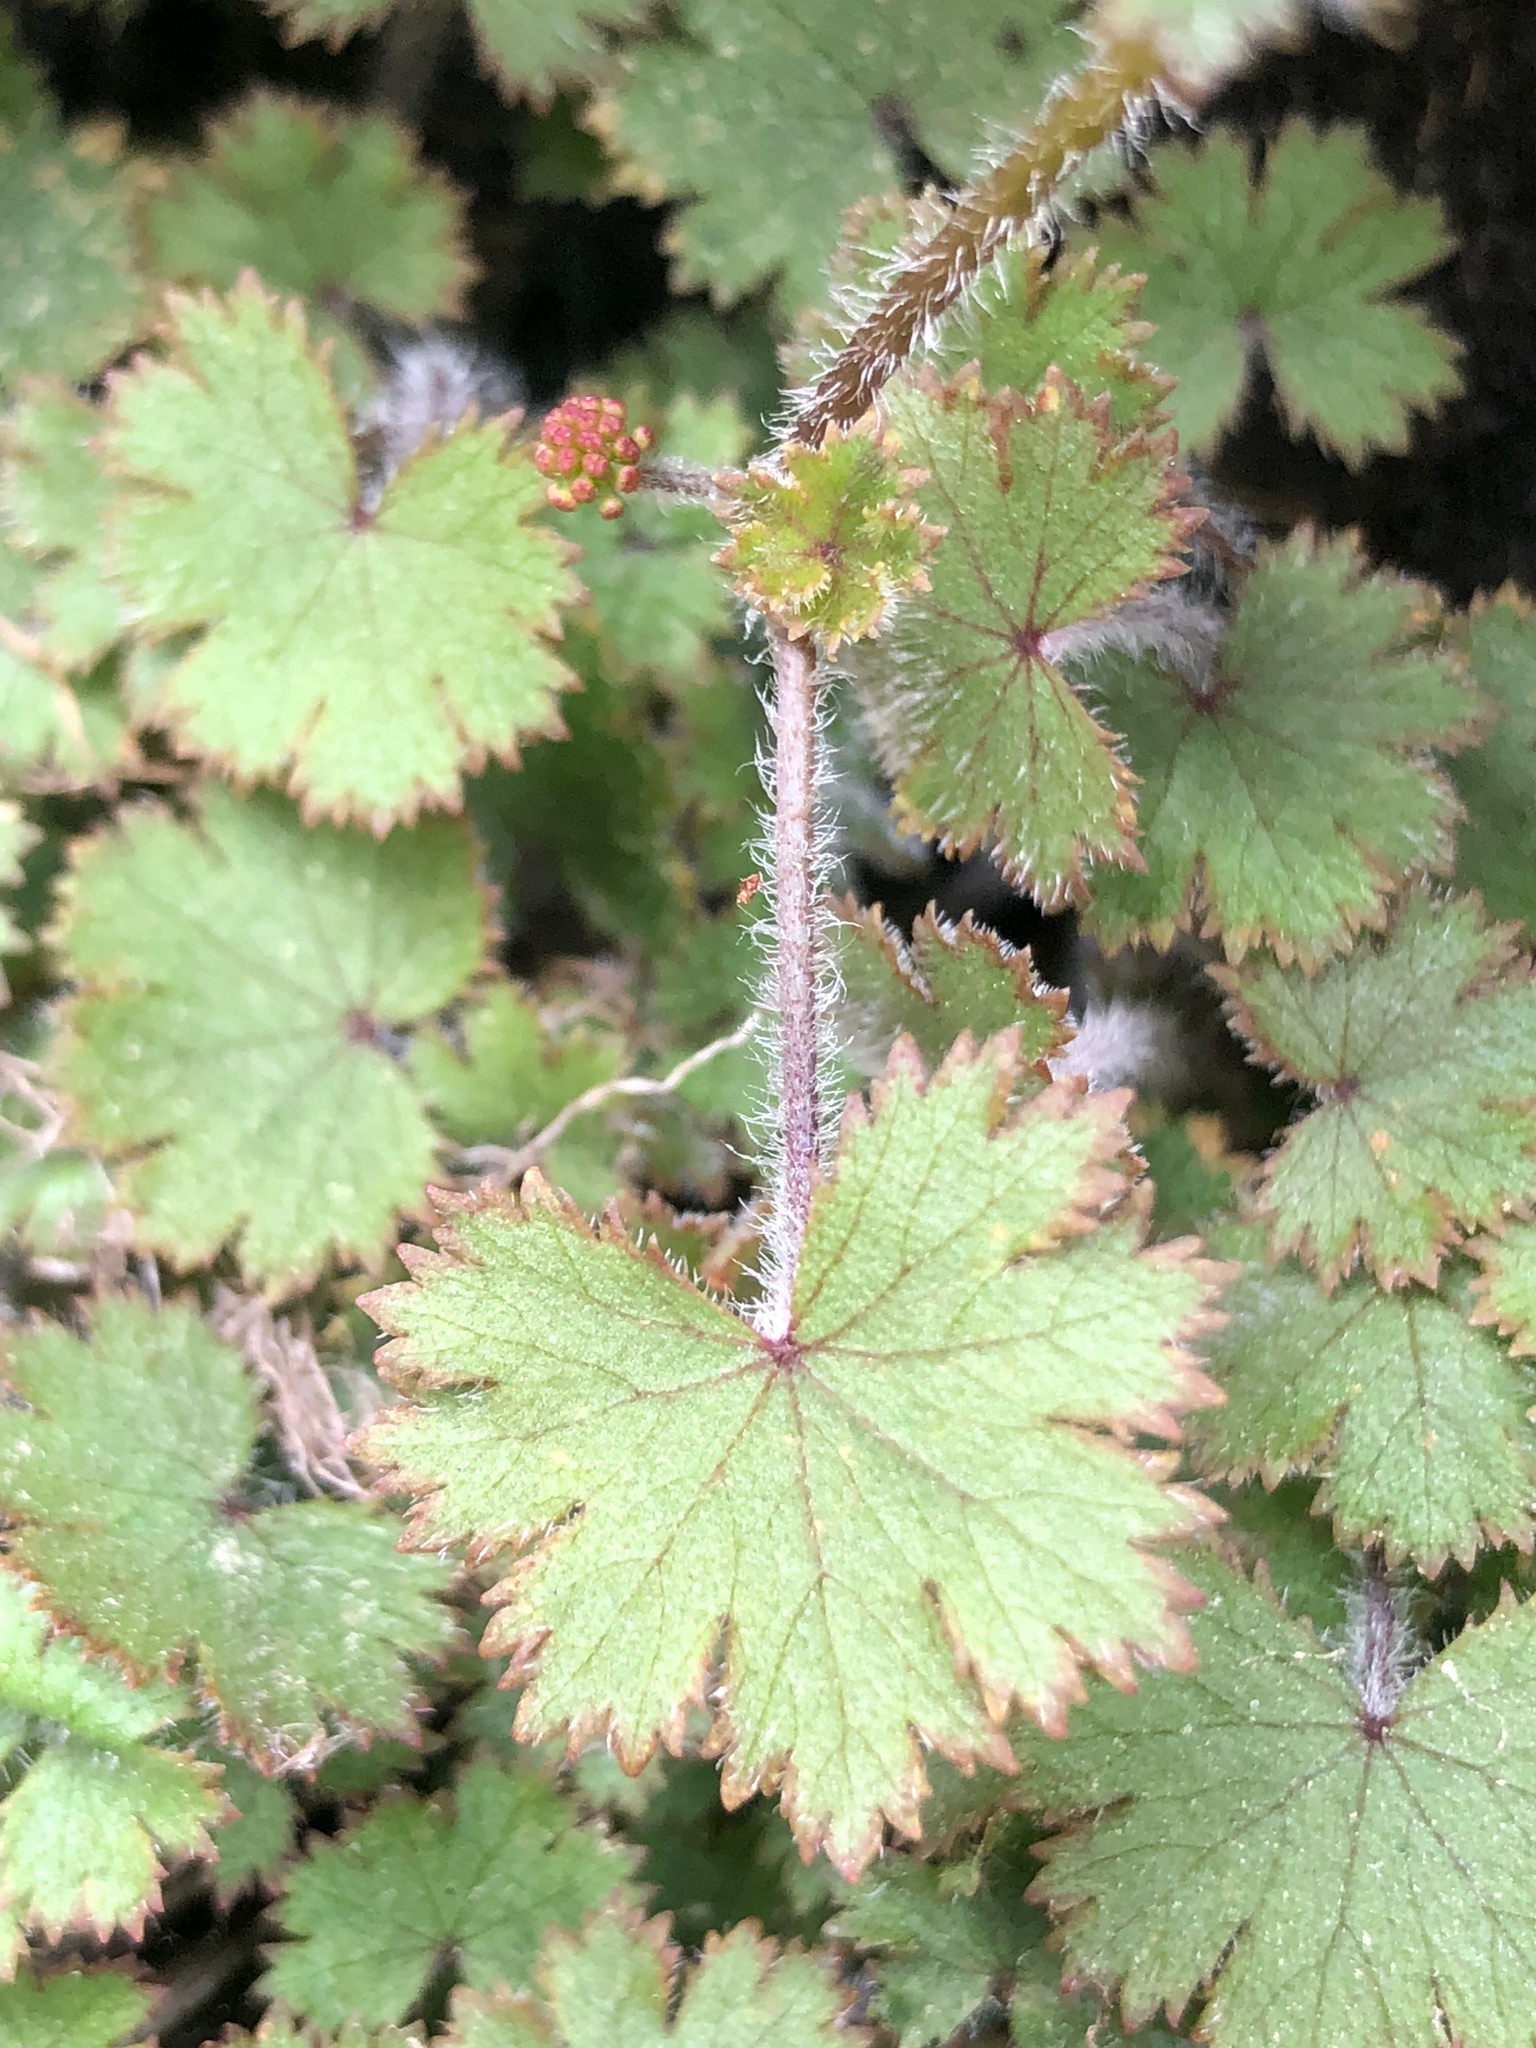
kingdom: Plantae
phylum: Tracheophyta
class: Magnoliopsida
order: Apiales
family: Araliaceae
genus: Hydrocotyle
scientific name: Hydrocotyle moschata
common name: Hairy pennywort
